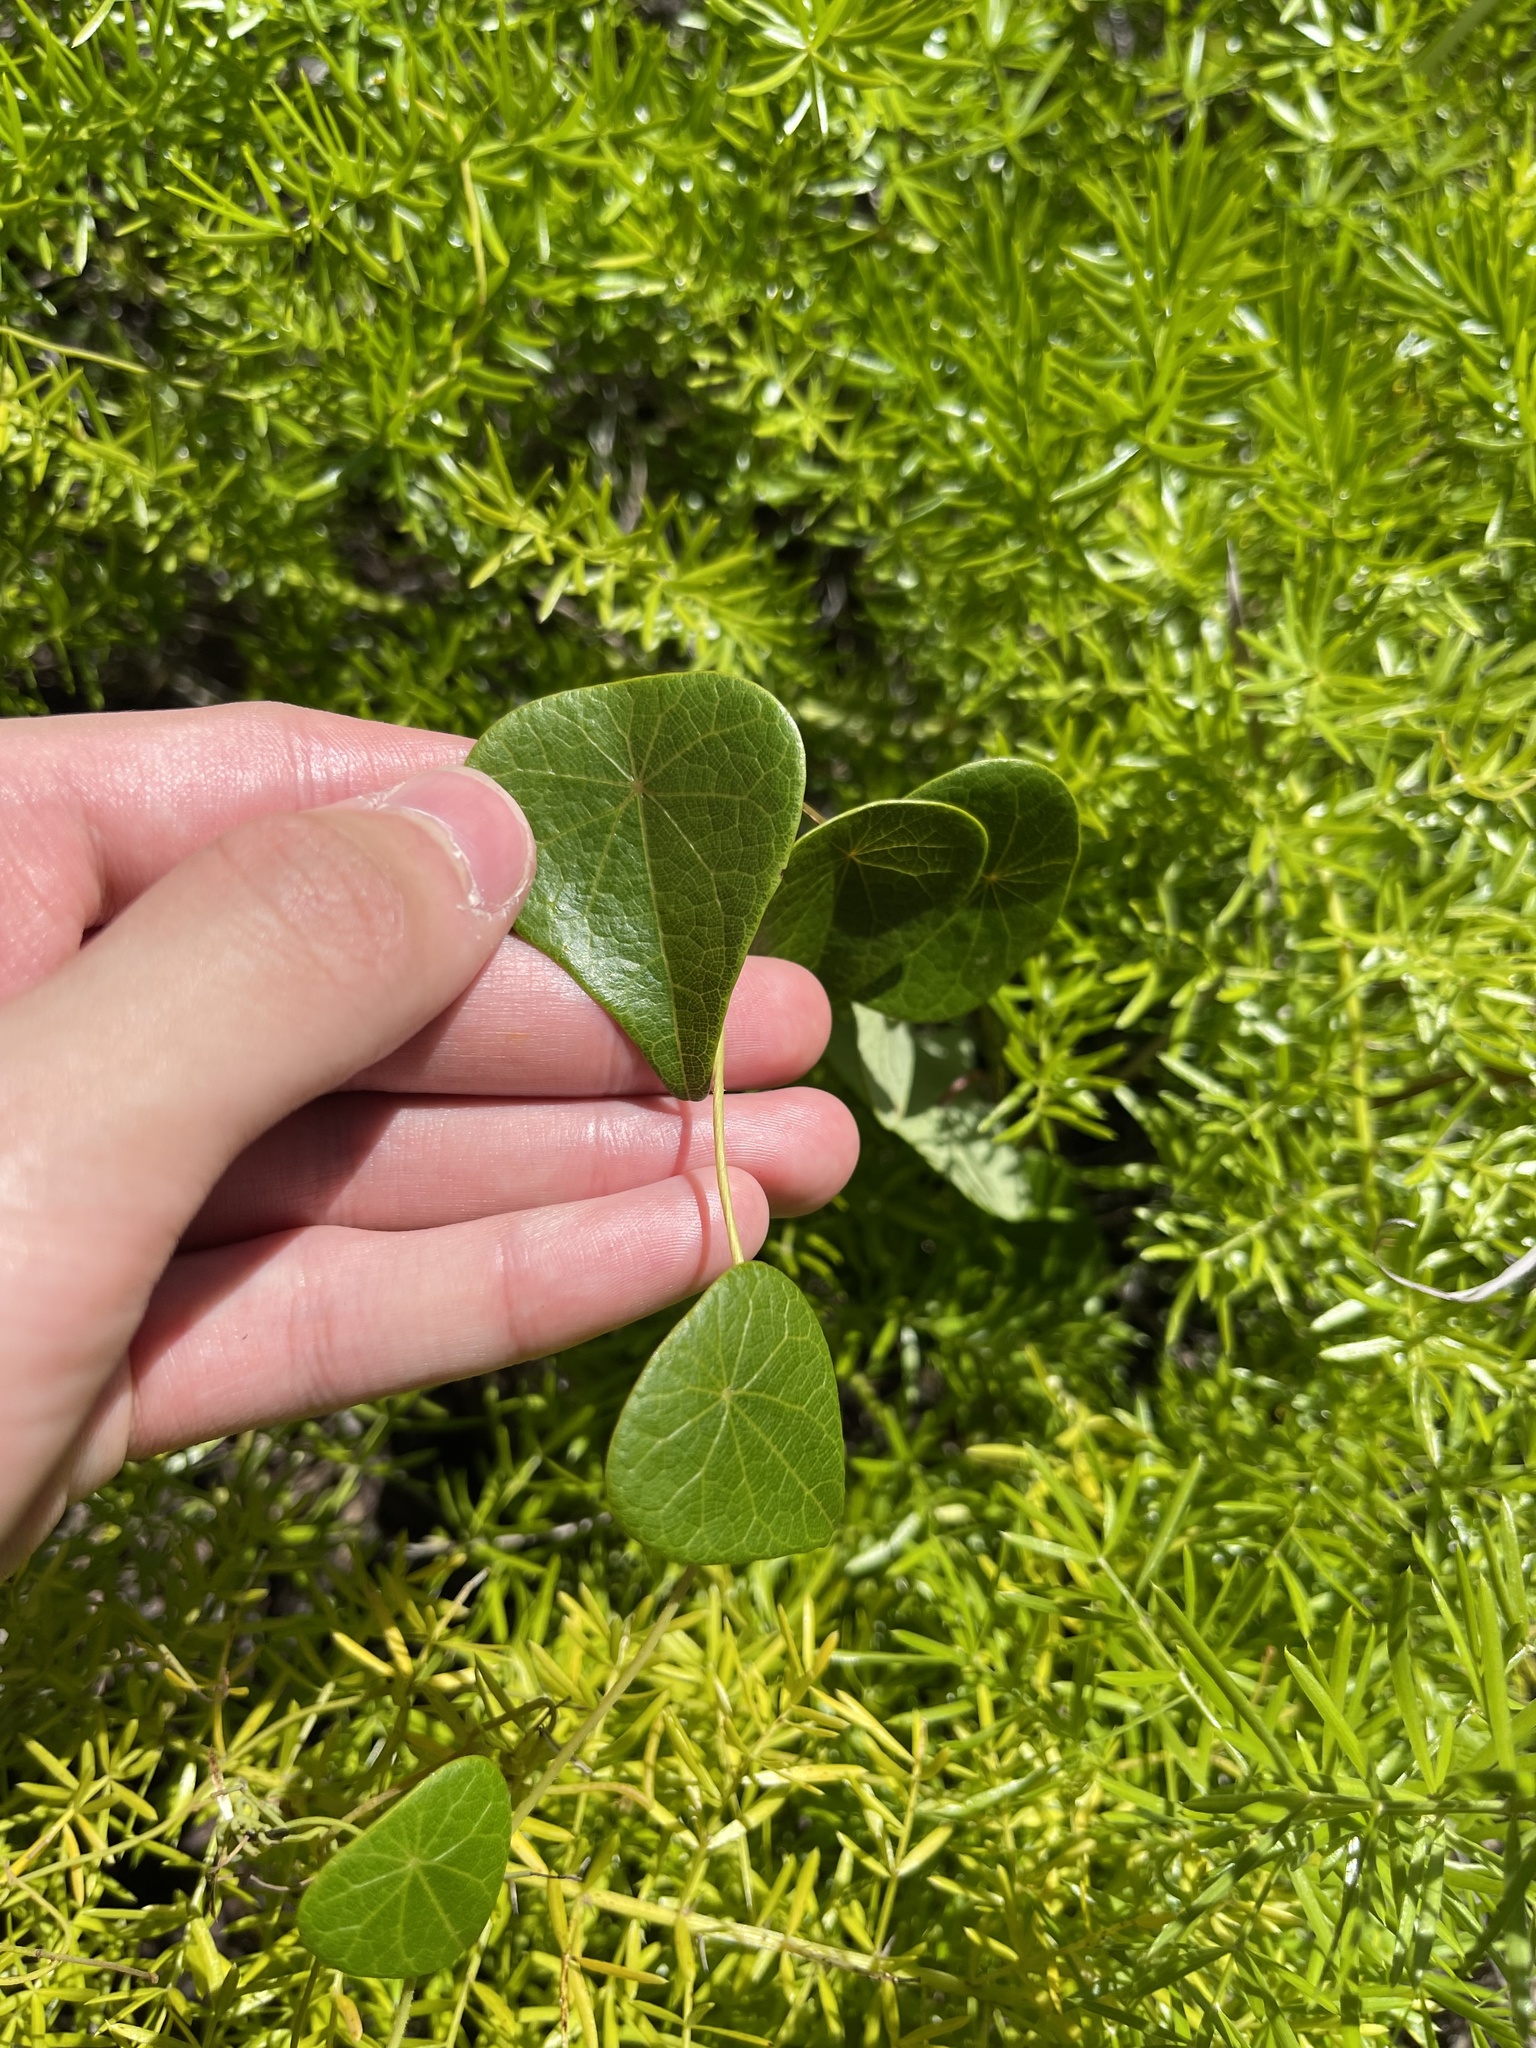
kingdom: Plantae
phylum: Tracheophyta
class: Magnoliopsida
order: Ranunculales
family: Menispermaceae
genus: Stephania
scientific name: Stephania japonica
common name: Snake vine
